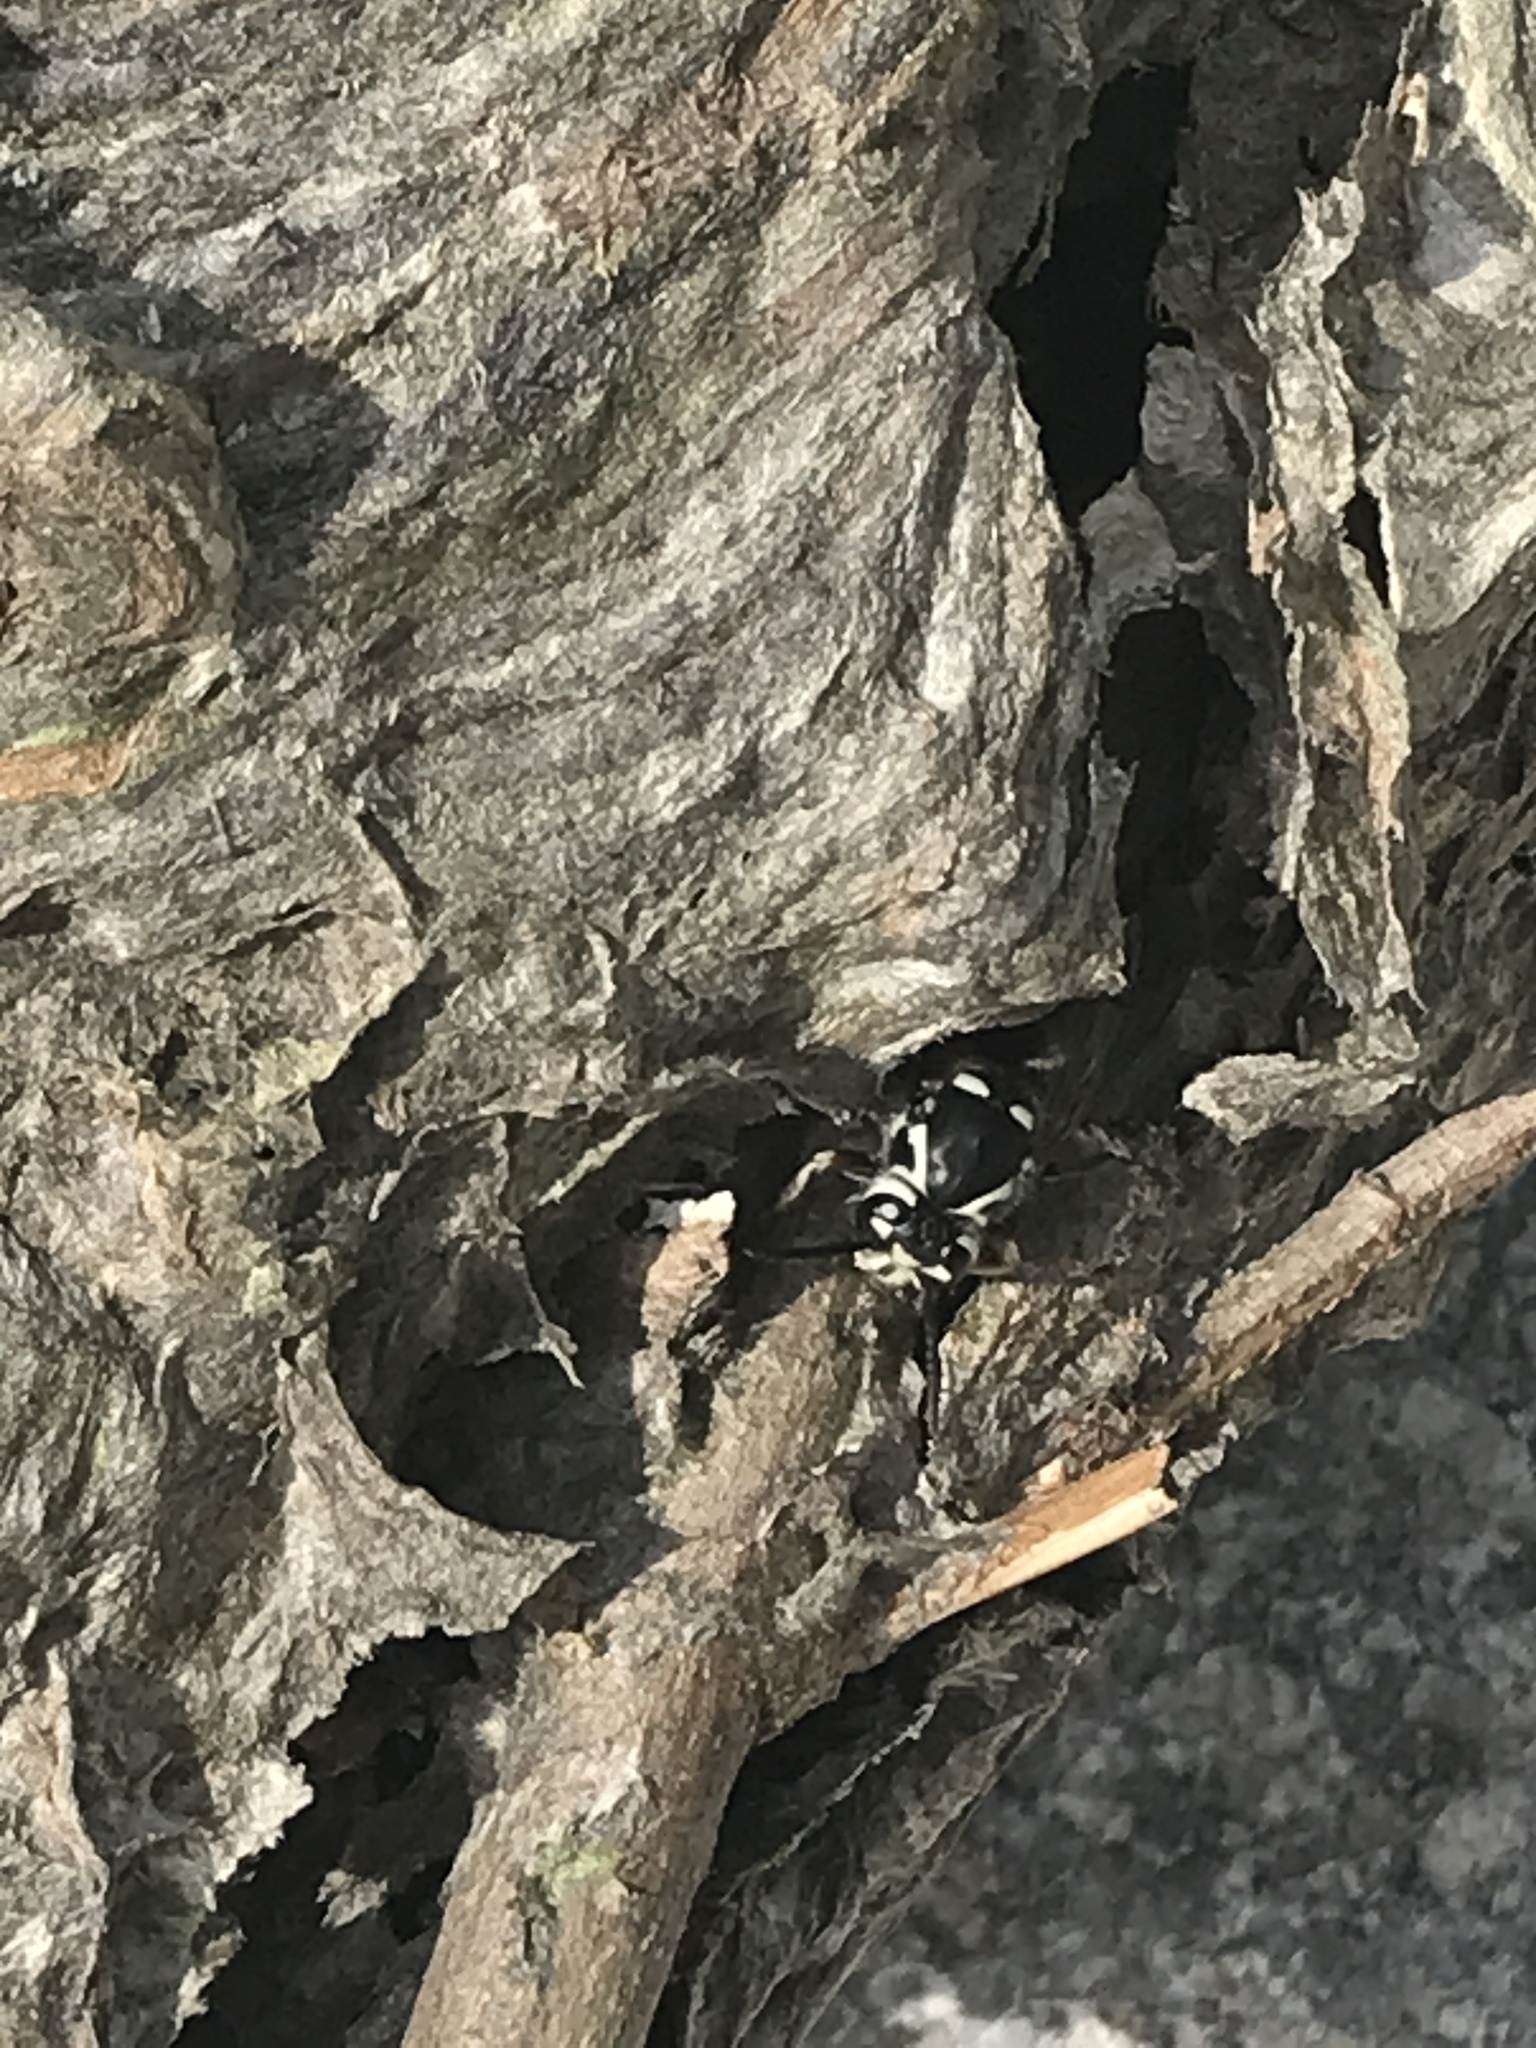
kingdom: Animalia
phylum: Arthropoda
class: Insecta
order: Hymenoptera
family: Vespidae
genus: Dolichovespula
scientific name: Dolichovespula maculata
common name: Bald-faced hornet
